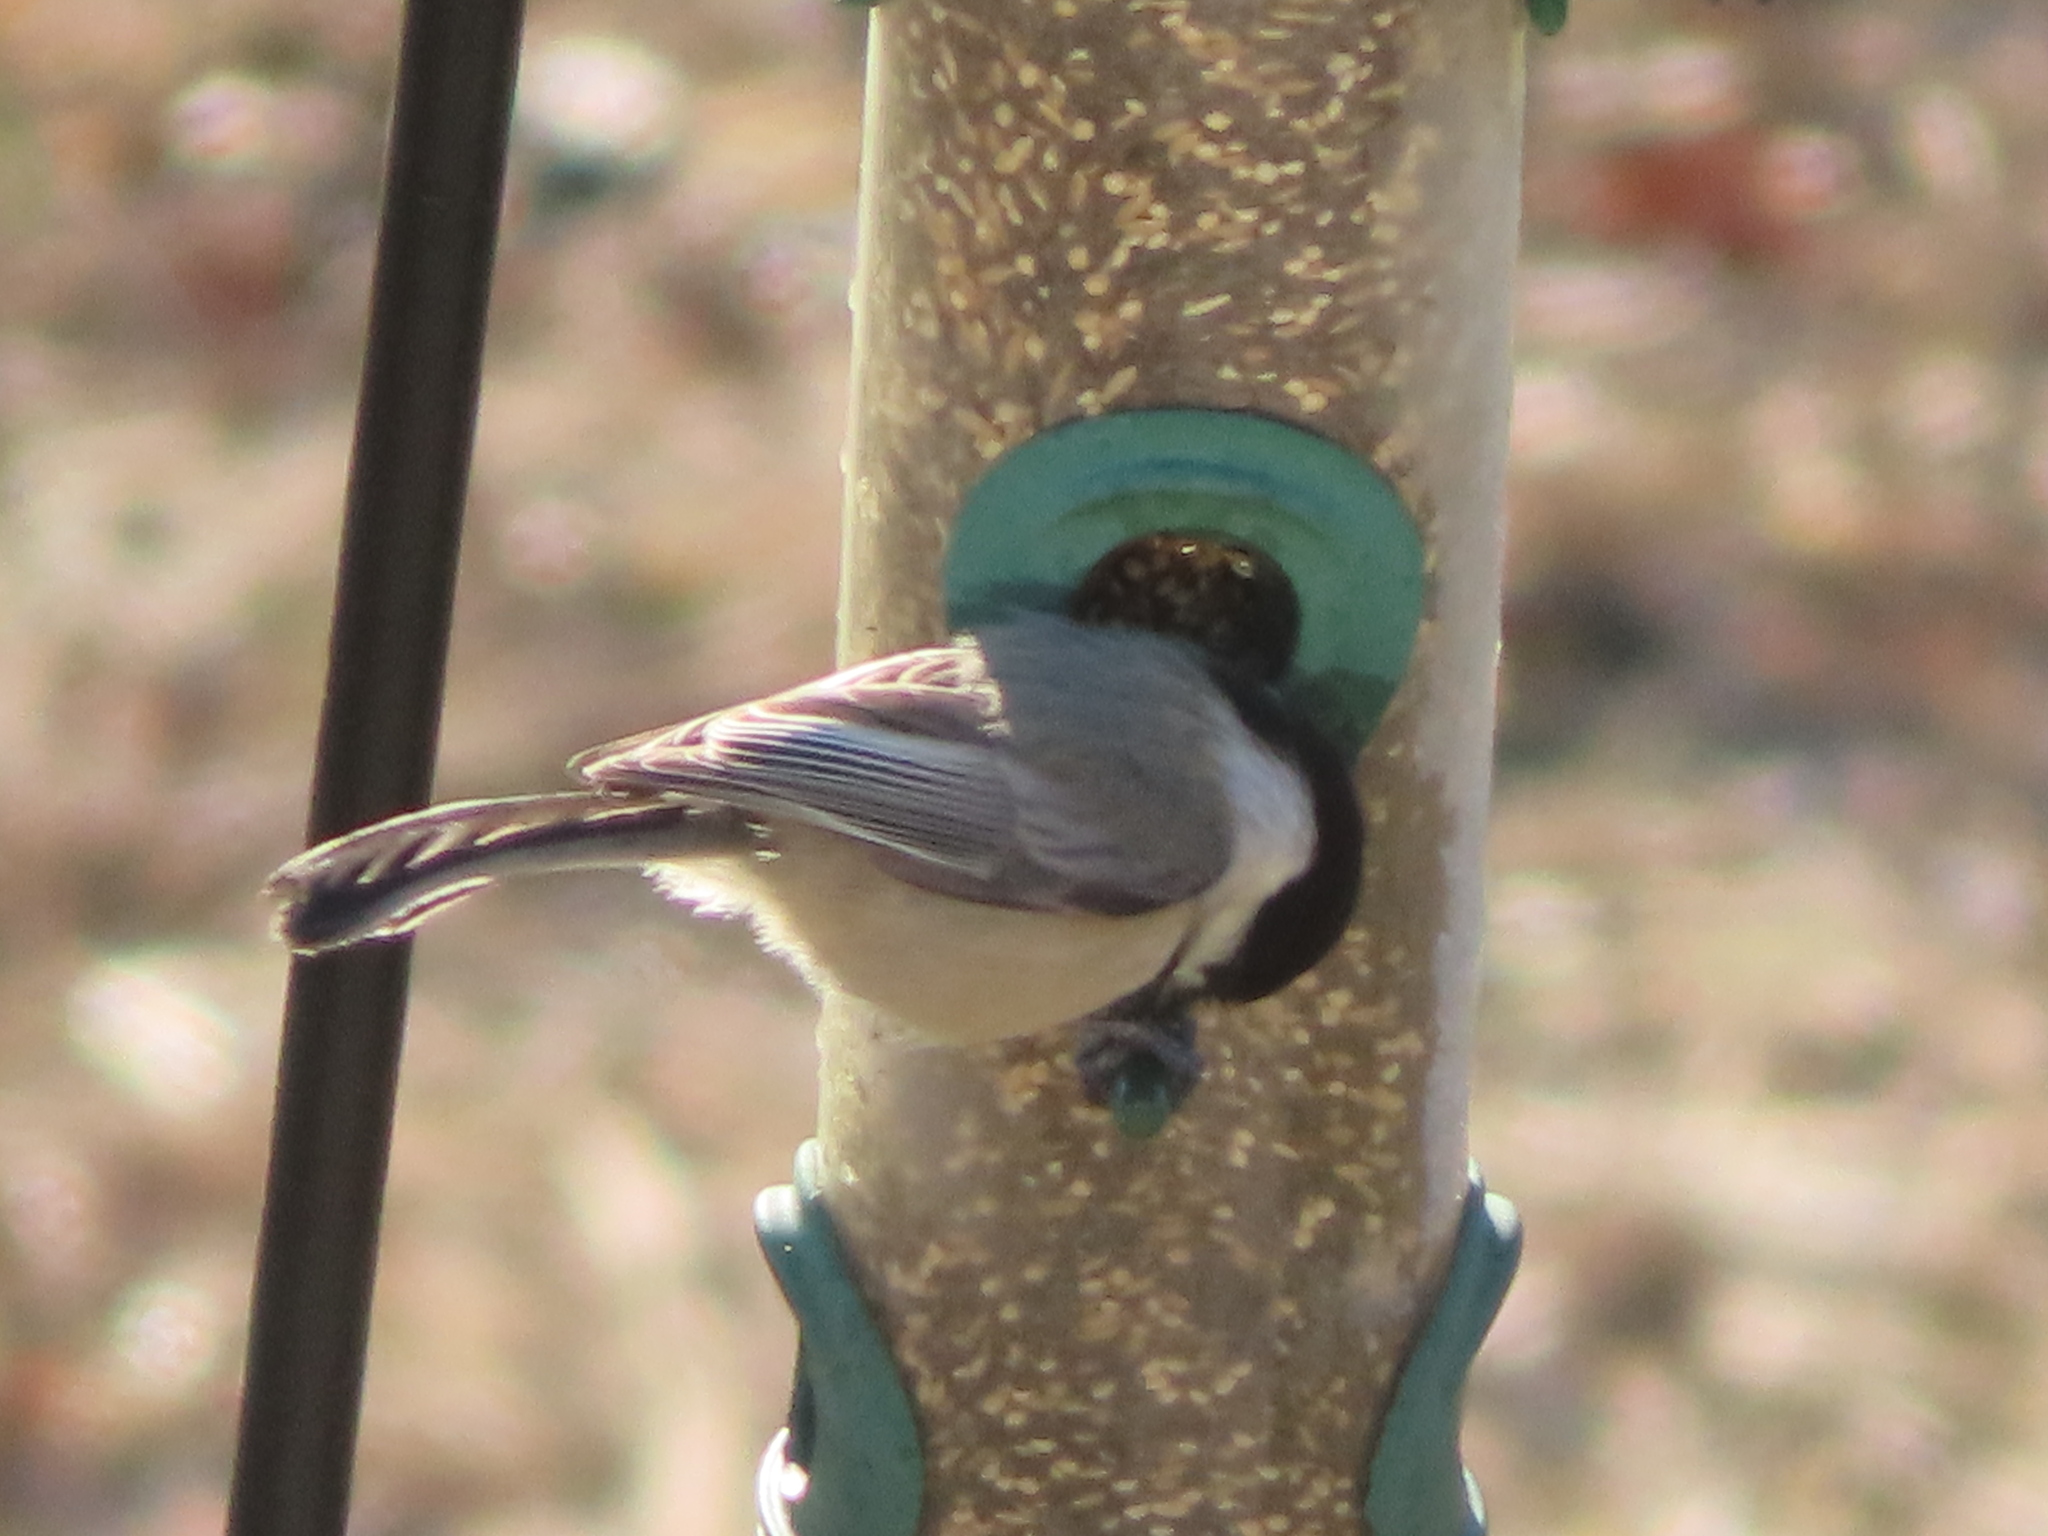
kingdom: Animalia
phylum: Chordata
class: Aves
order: Passeriformes
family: Paridae
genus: Poecile
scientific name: Poecile atricapillus
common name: Black-capped chickadee
